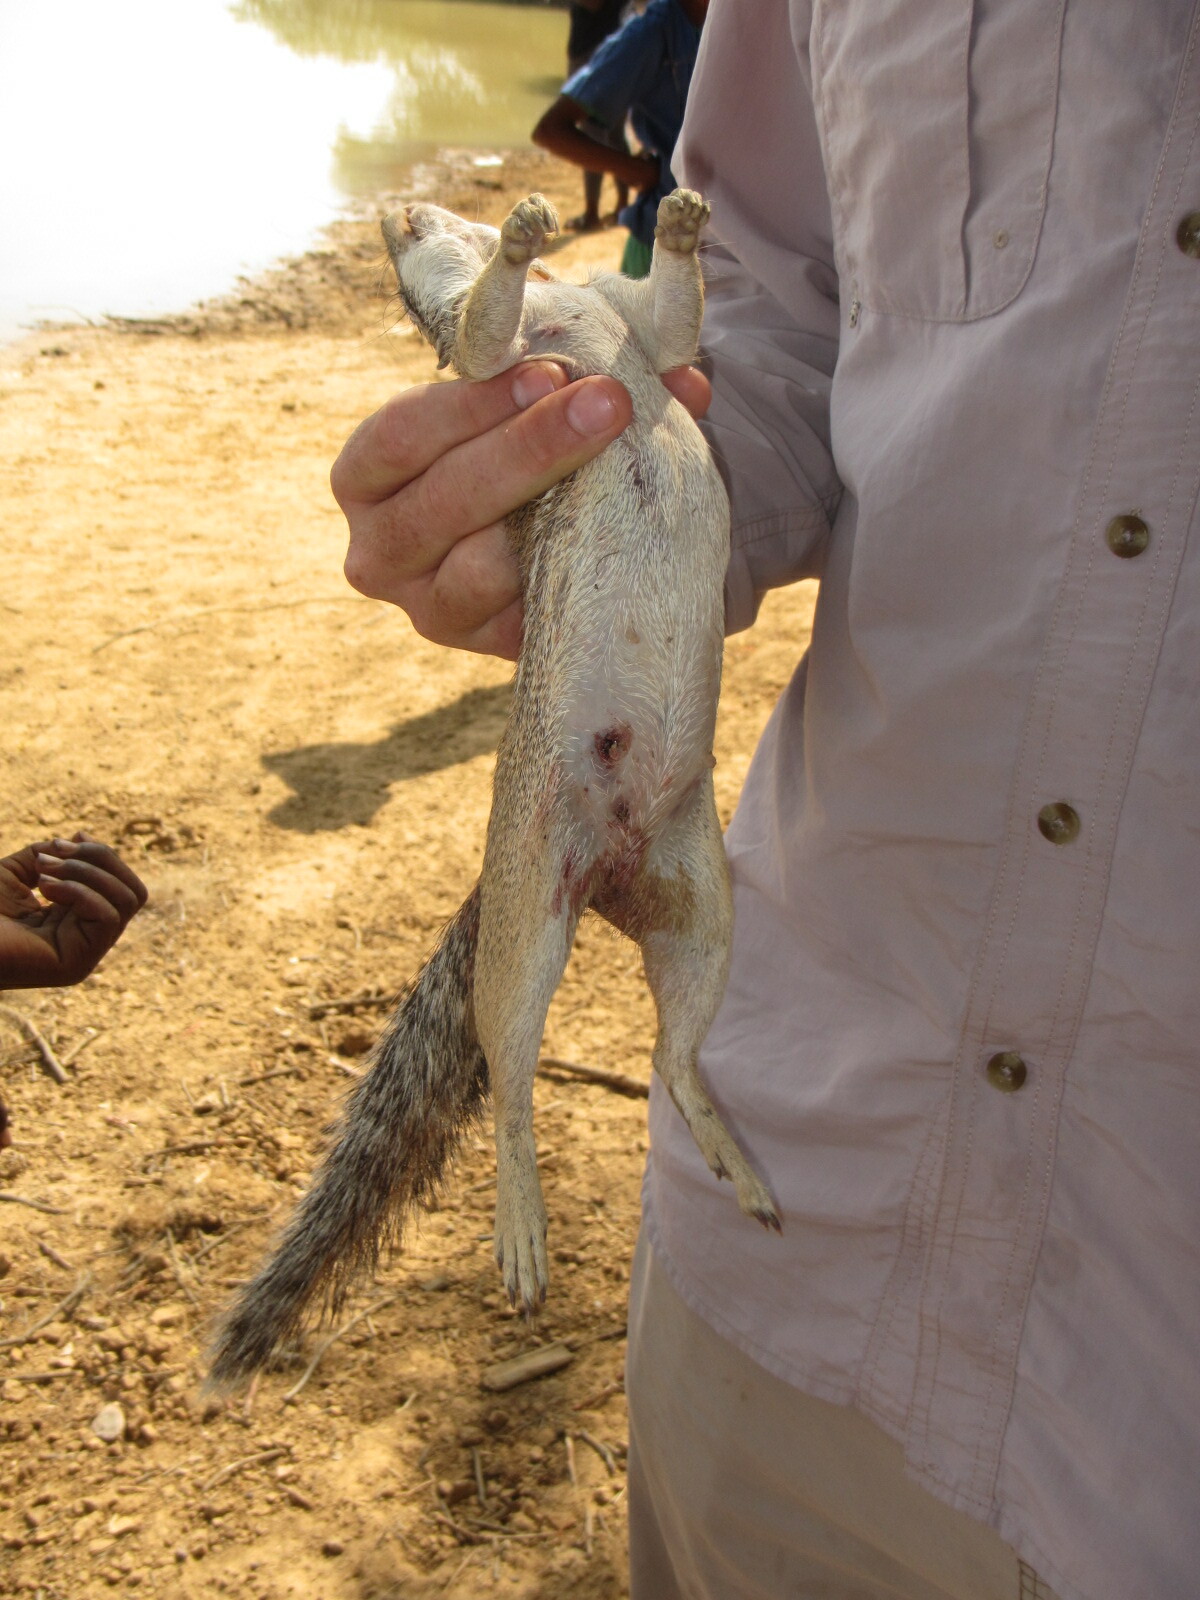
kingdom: Animalia
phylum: Chordata
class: Mammalia
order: Rodentia
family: Sciuridae
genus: Xerus
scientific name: Xerus erythropus
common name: Striped ground squirrel
